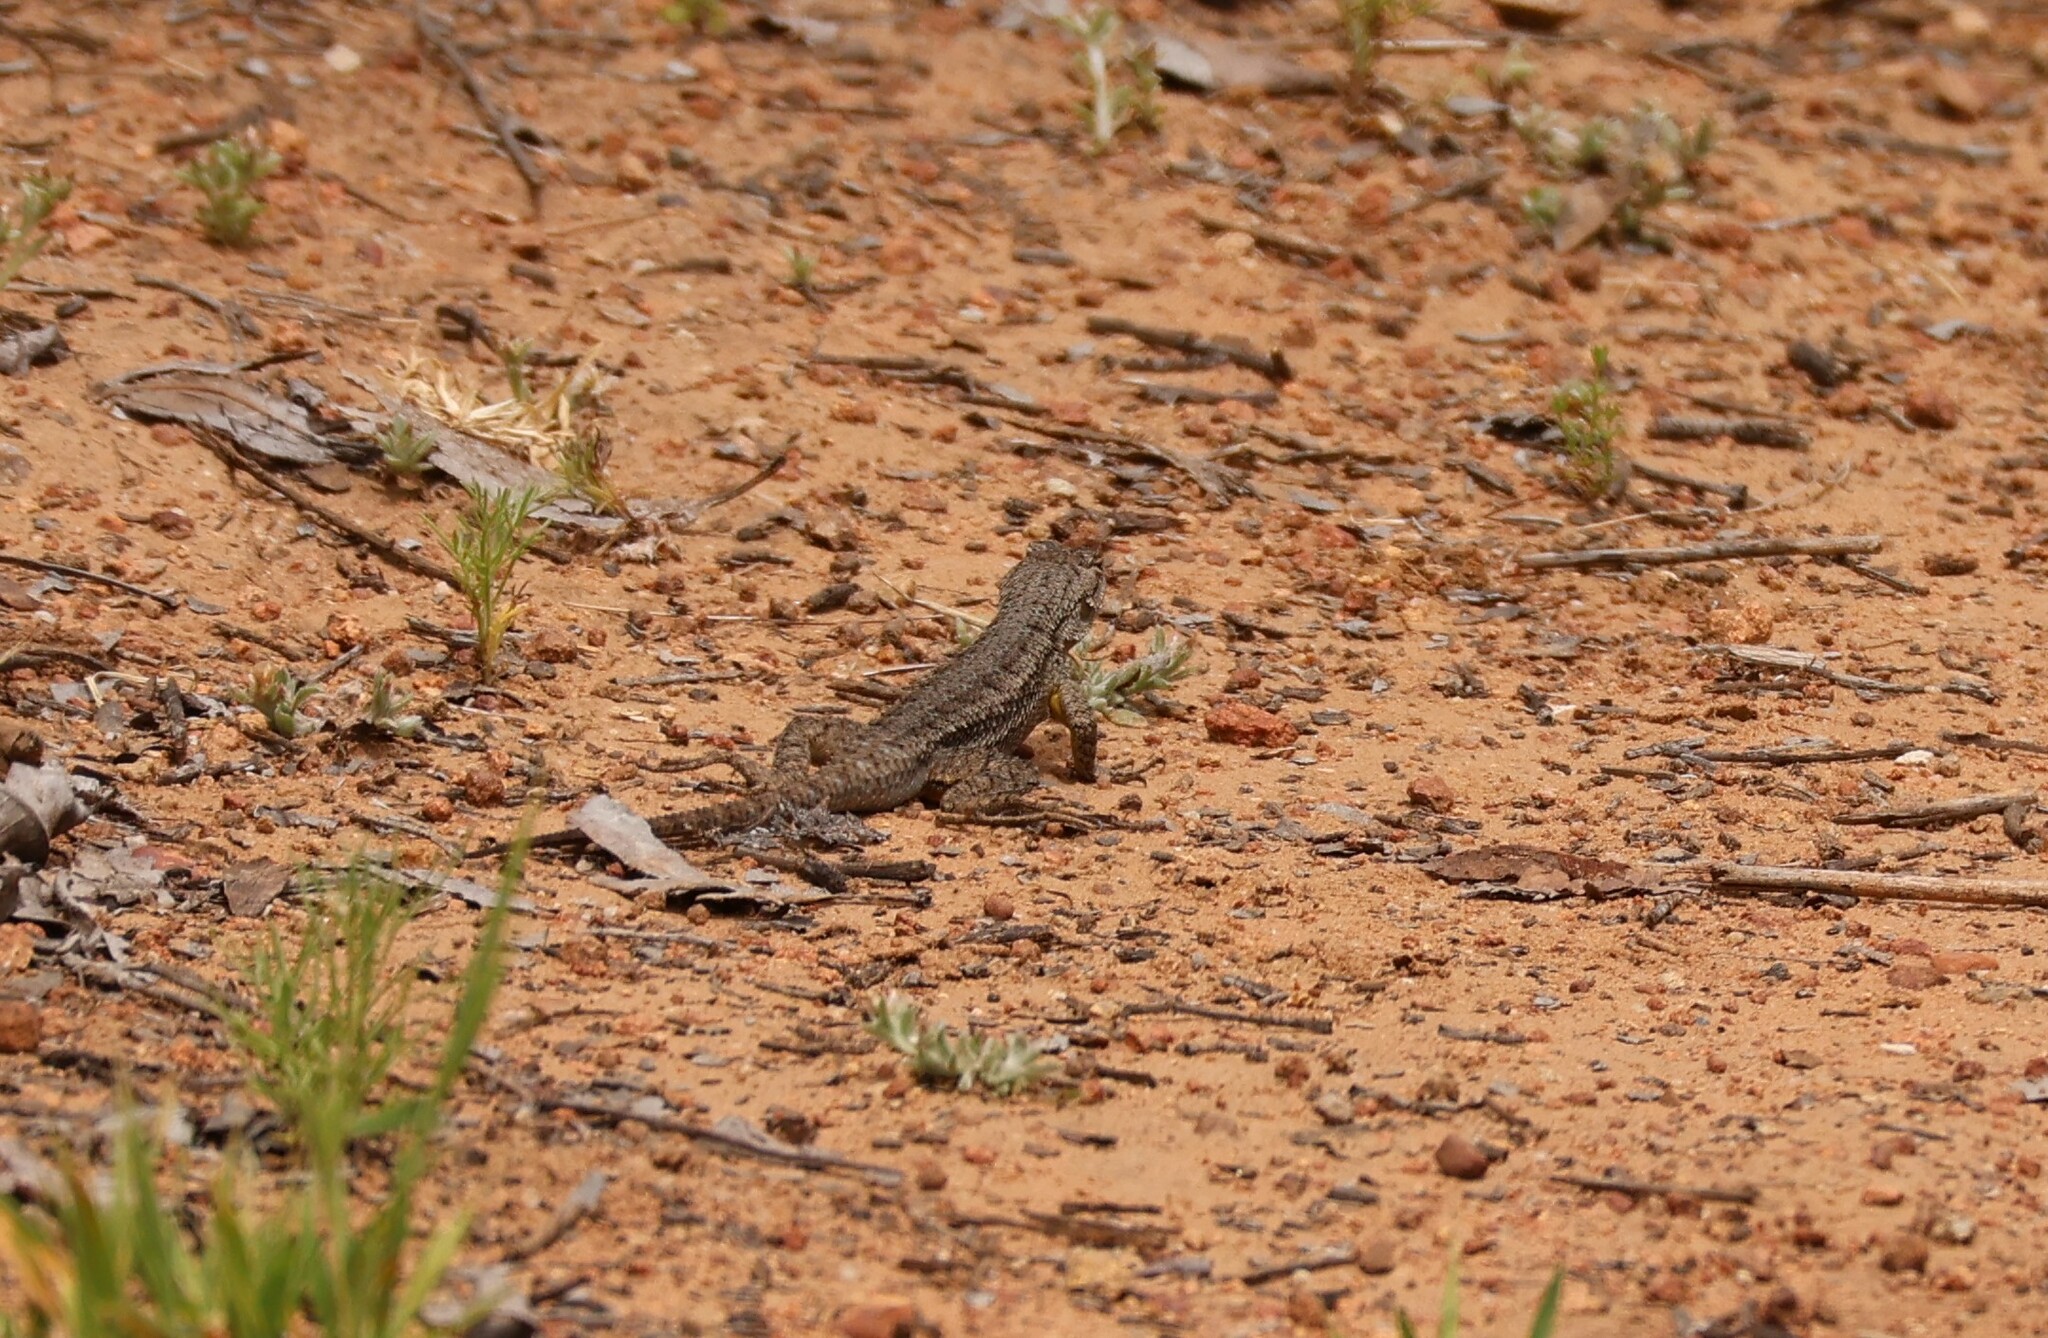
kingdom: Animalia
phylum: Chordata
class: Squamata
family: Phrynosomatidae
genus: Sceloporus
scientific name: Sceloporus occidentalis
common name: Western fence lizard
